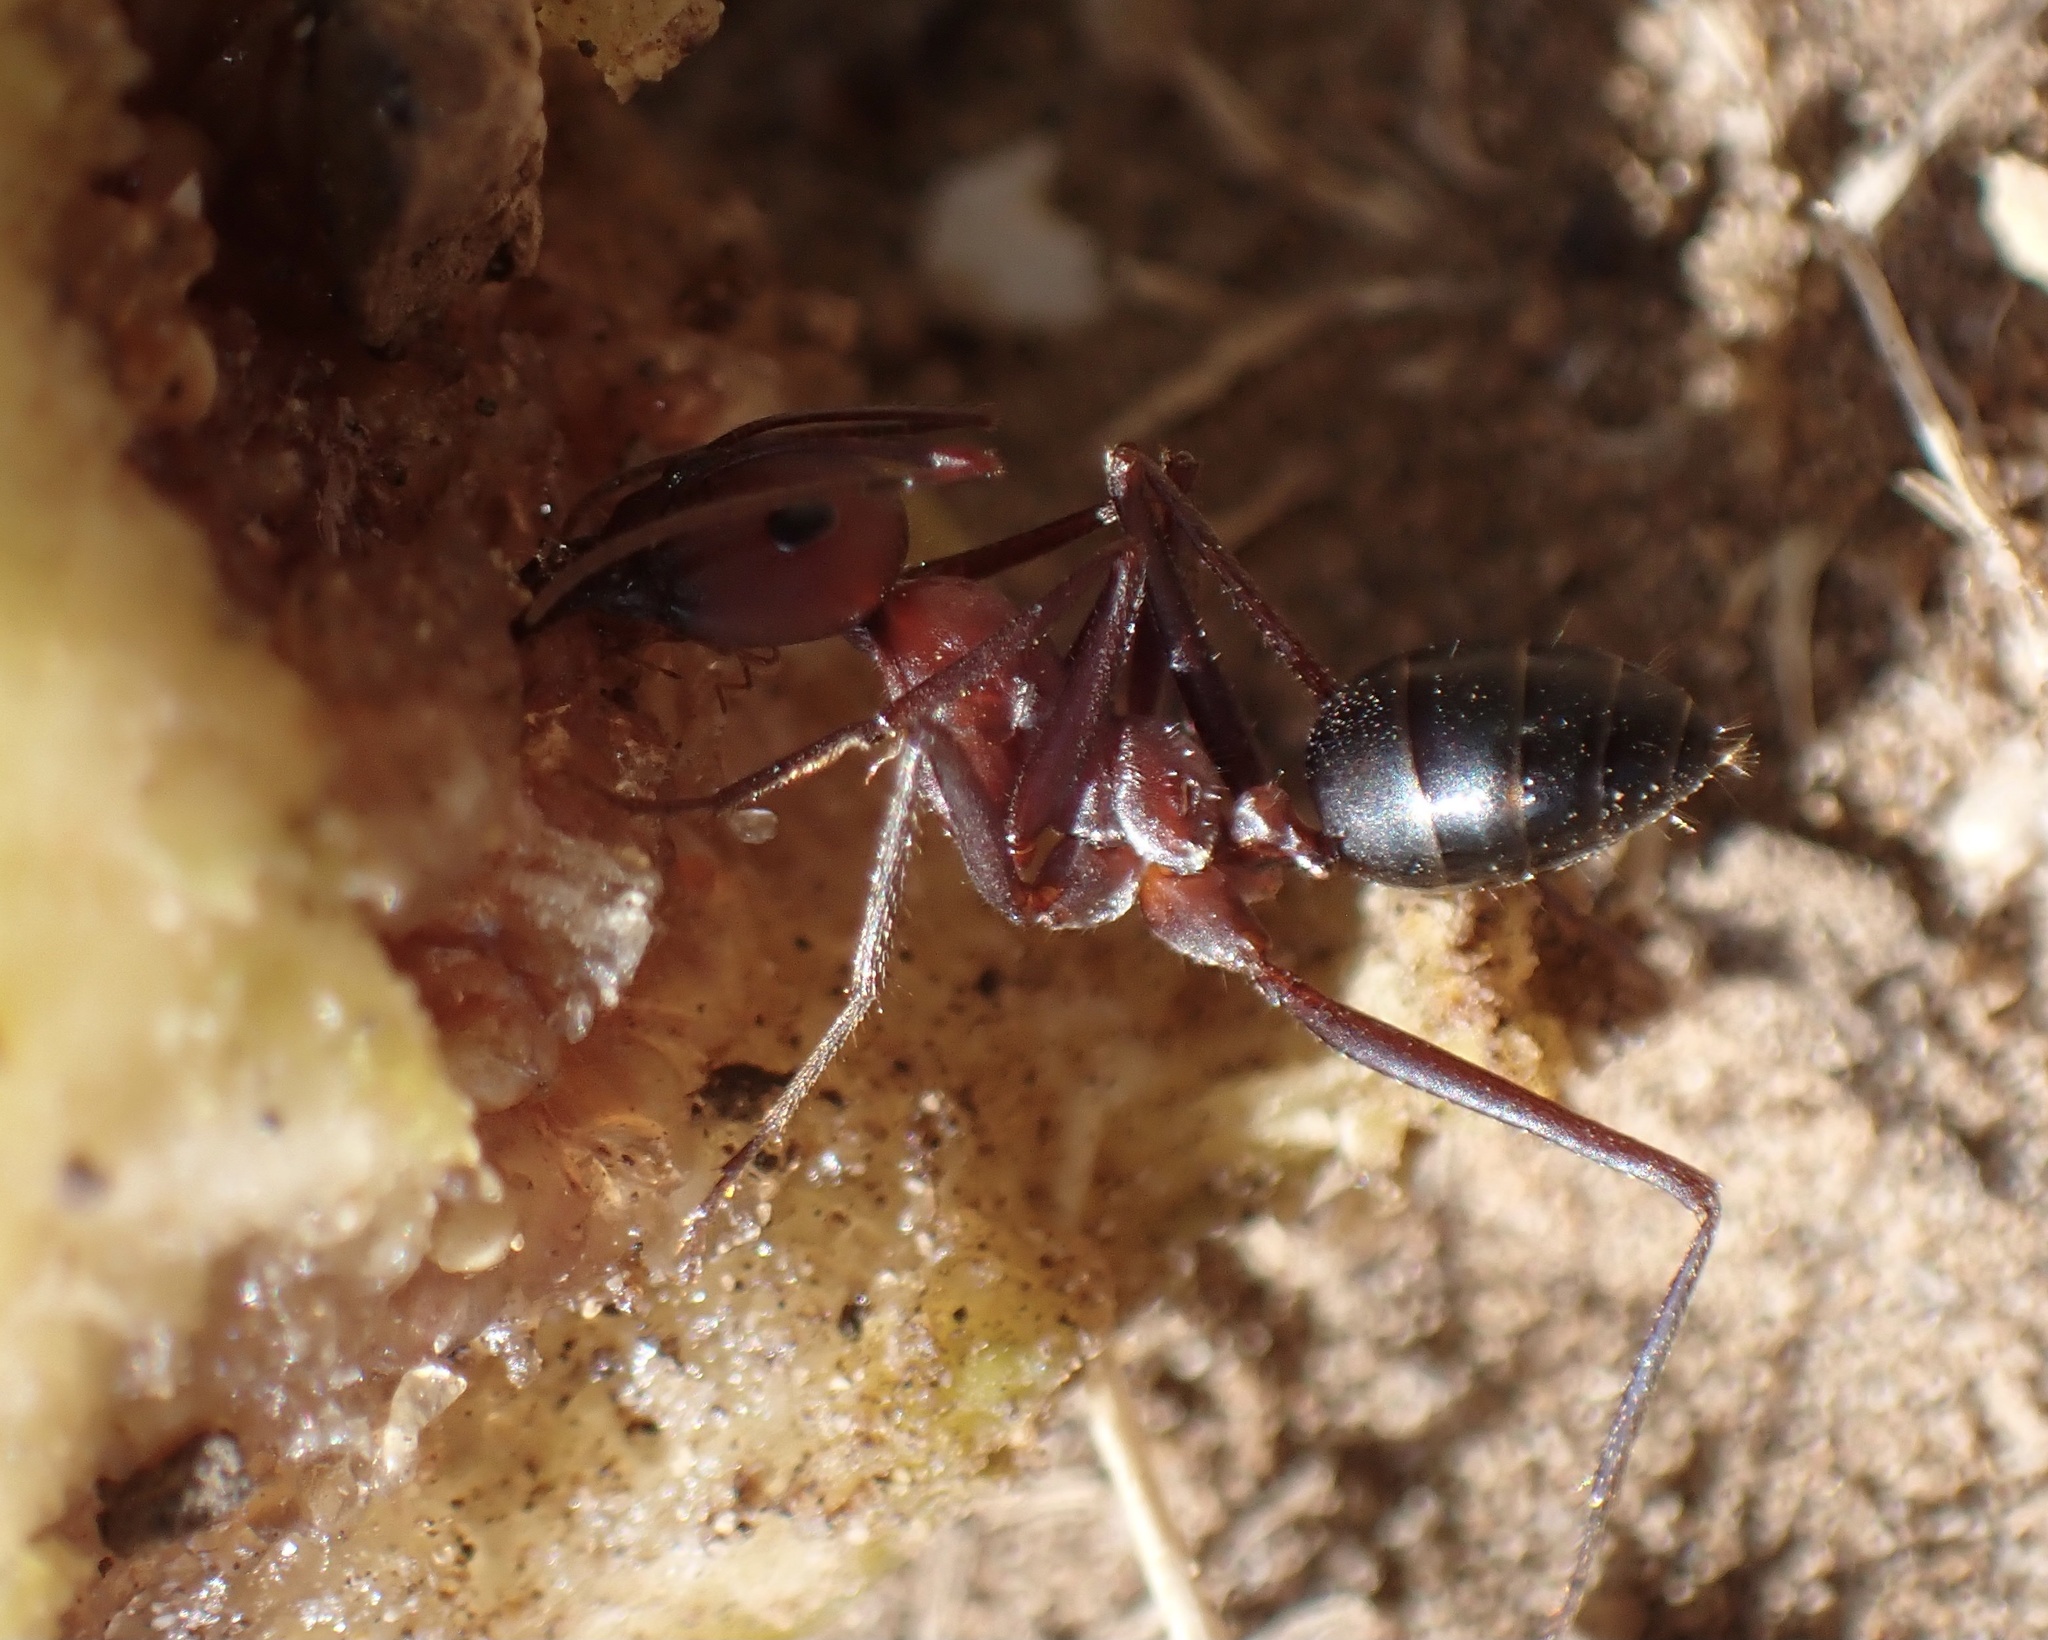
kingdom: Animalia
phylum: Arthropoda
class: Insecta
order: Hymenoptera
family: Formicidae
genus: Cataglyphis
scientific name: Cataglyphis nodus
